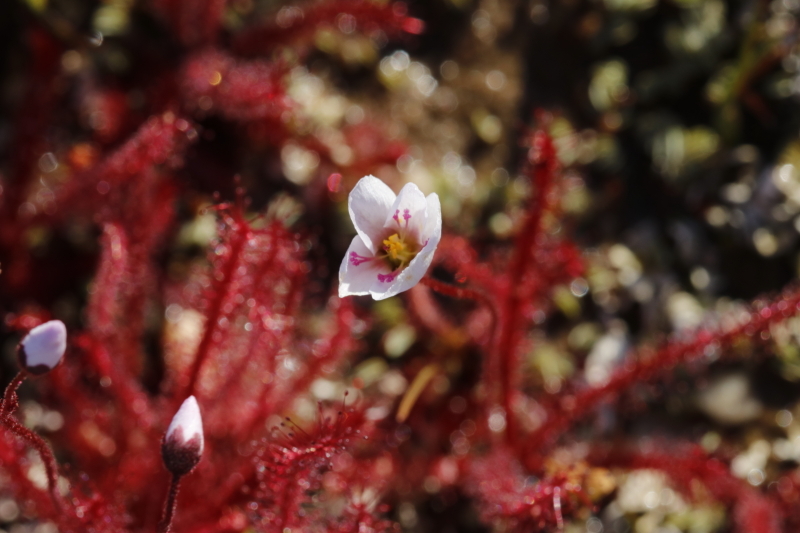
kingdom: Plantae
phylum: Tracheophyta
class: Magnoliopsida
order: Caryophyllales
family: Droseraceae
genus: Drosera
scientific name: Drosera alba
